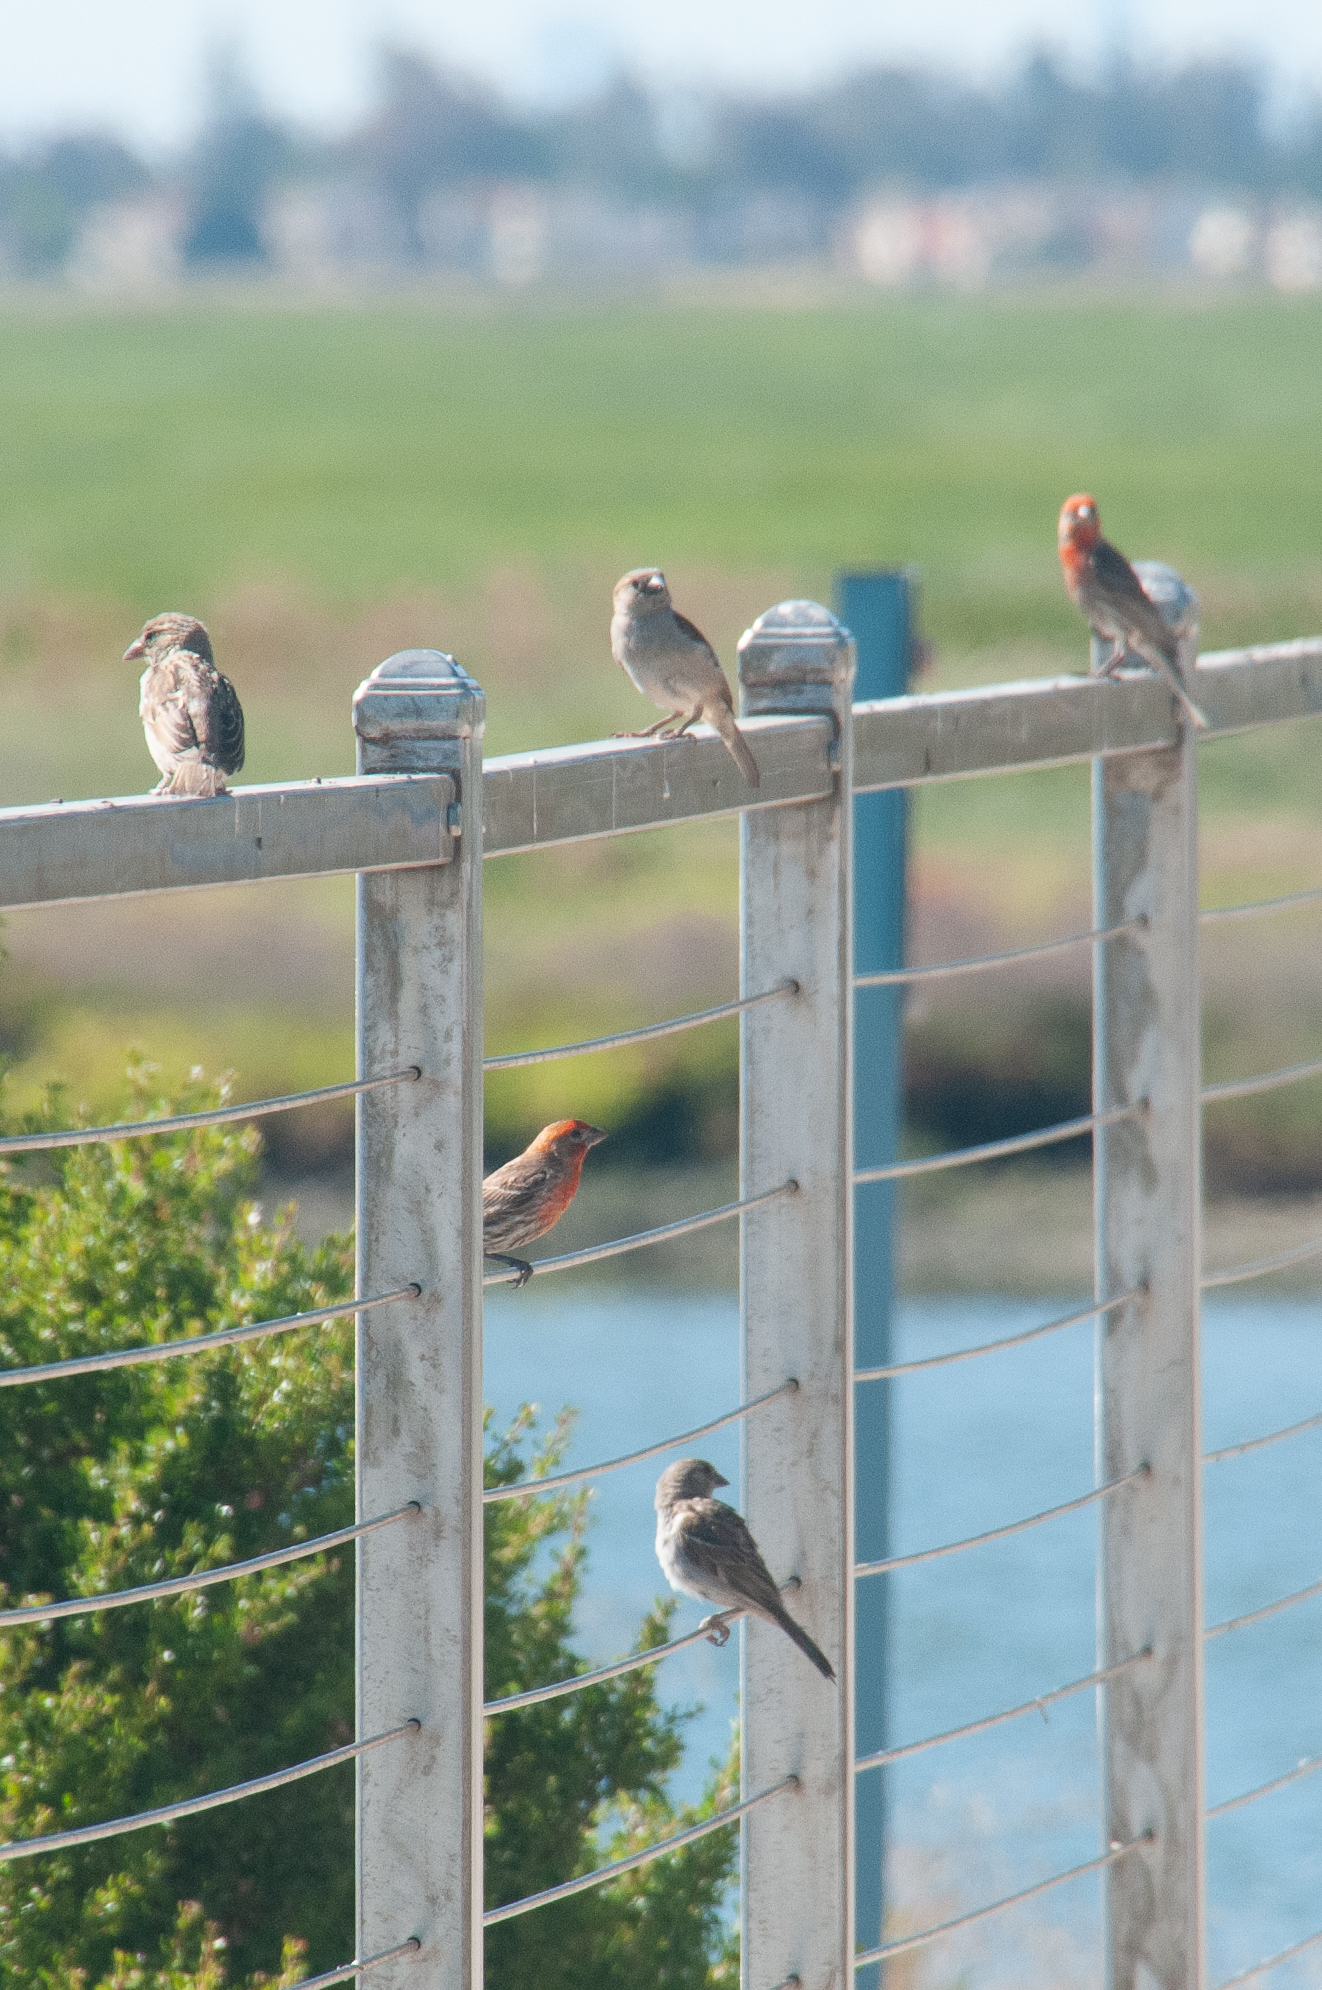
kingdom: Animalia
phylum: Chordata
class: Aves
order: Passeriformes
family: Fringillidae
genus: Haemorhous
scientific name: Haemorhous mexicanus
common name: House finch
